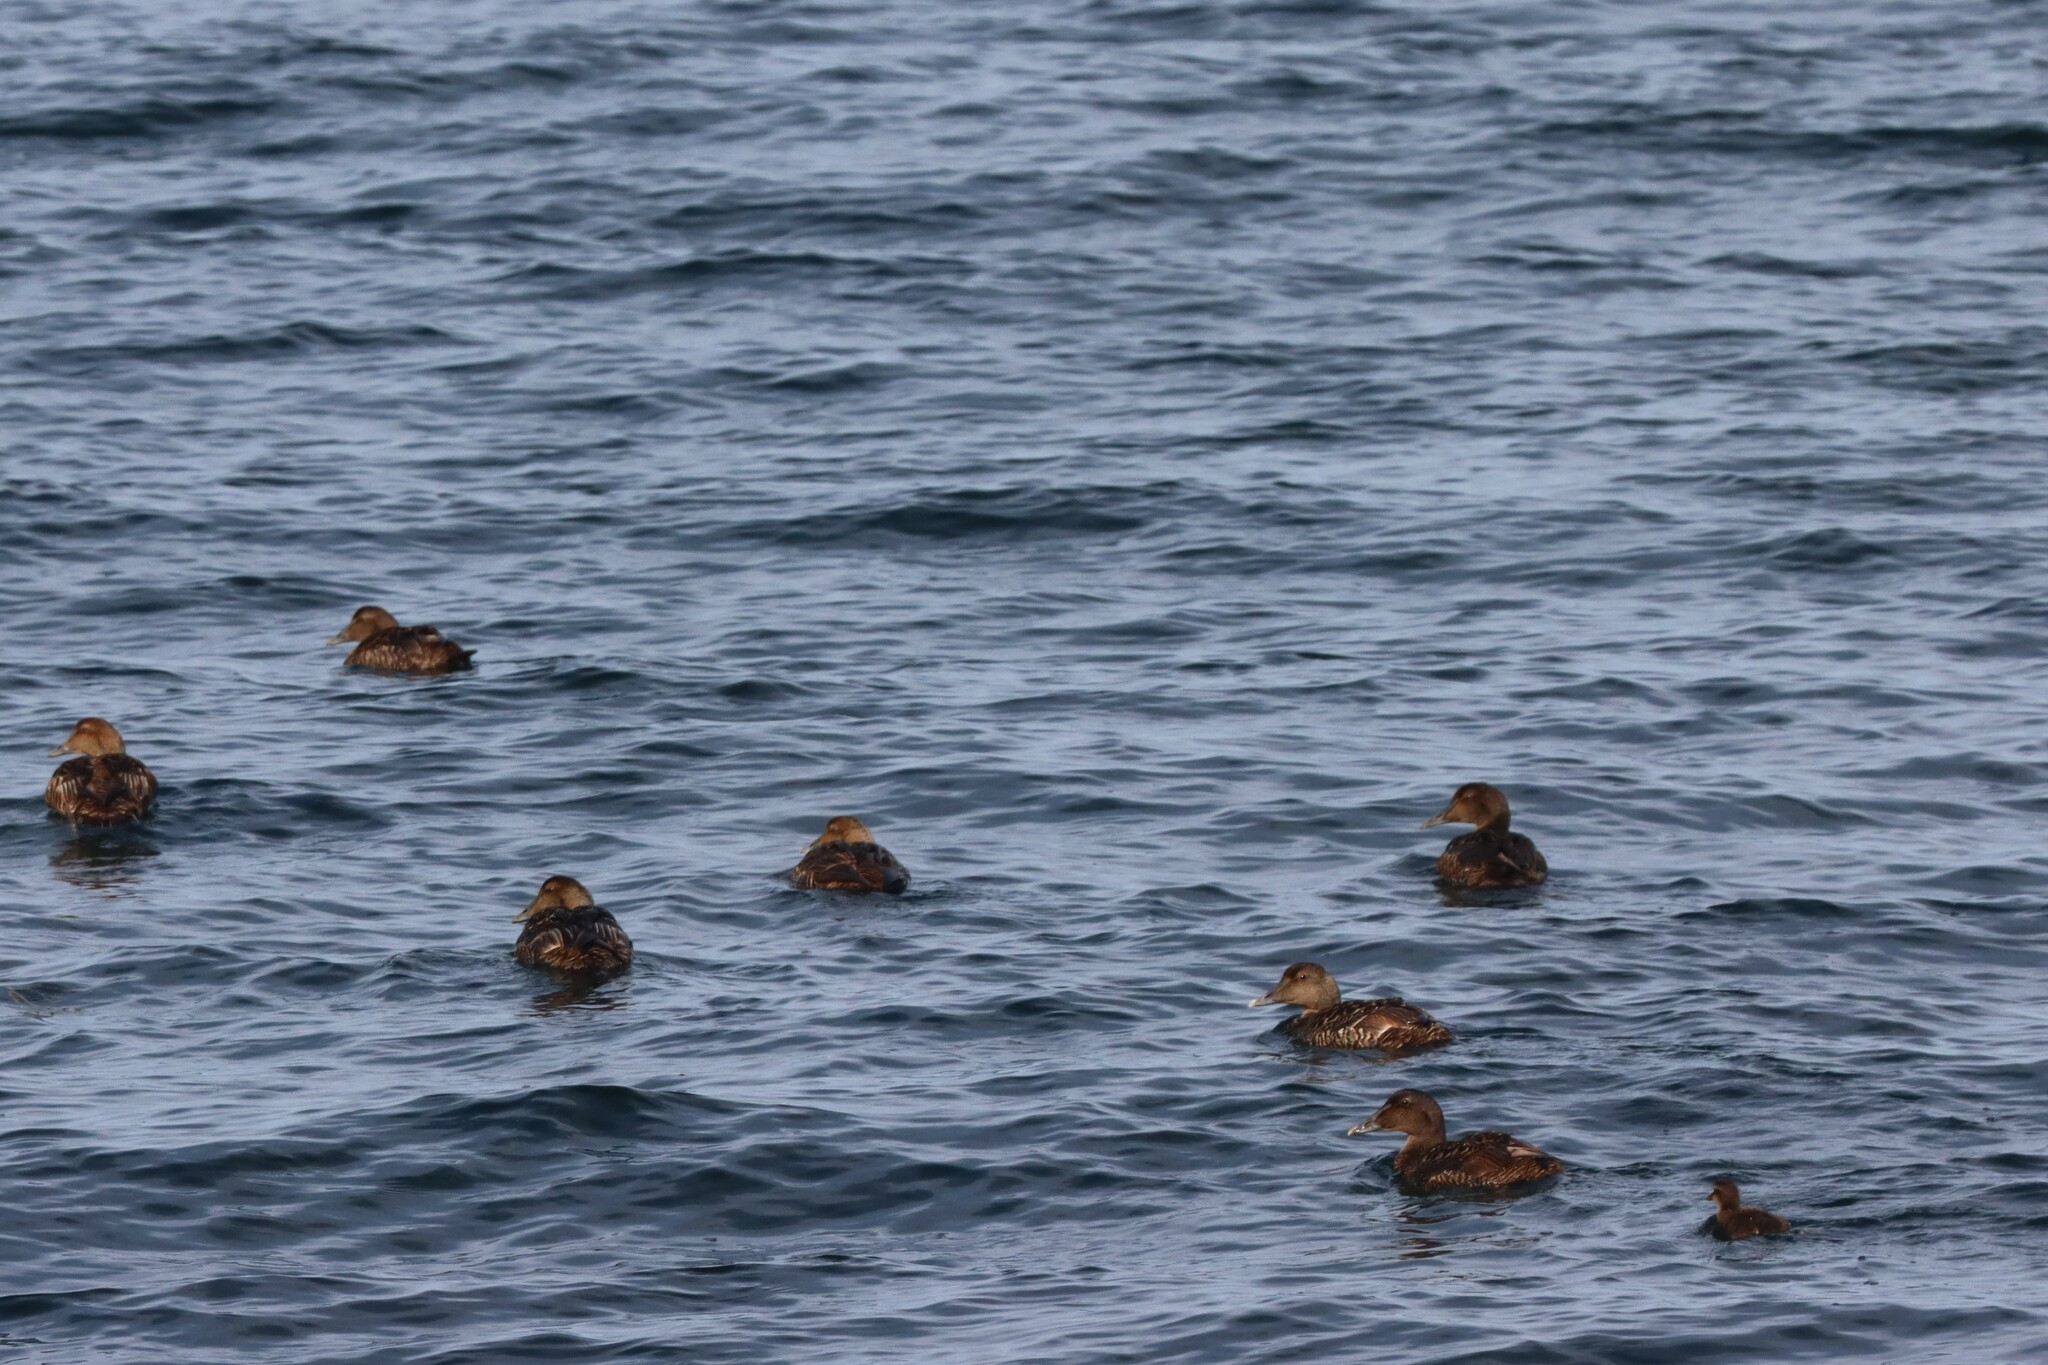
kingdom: Animalia
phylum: Chordata
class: Aves
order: Anseriformes
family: Anatidae
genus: Somateria
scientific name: Somateria mollissima
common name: Common eider
